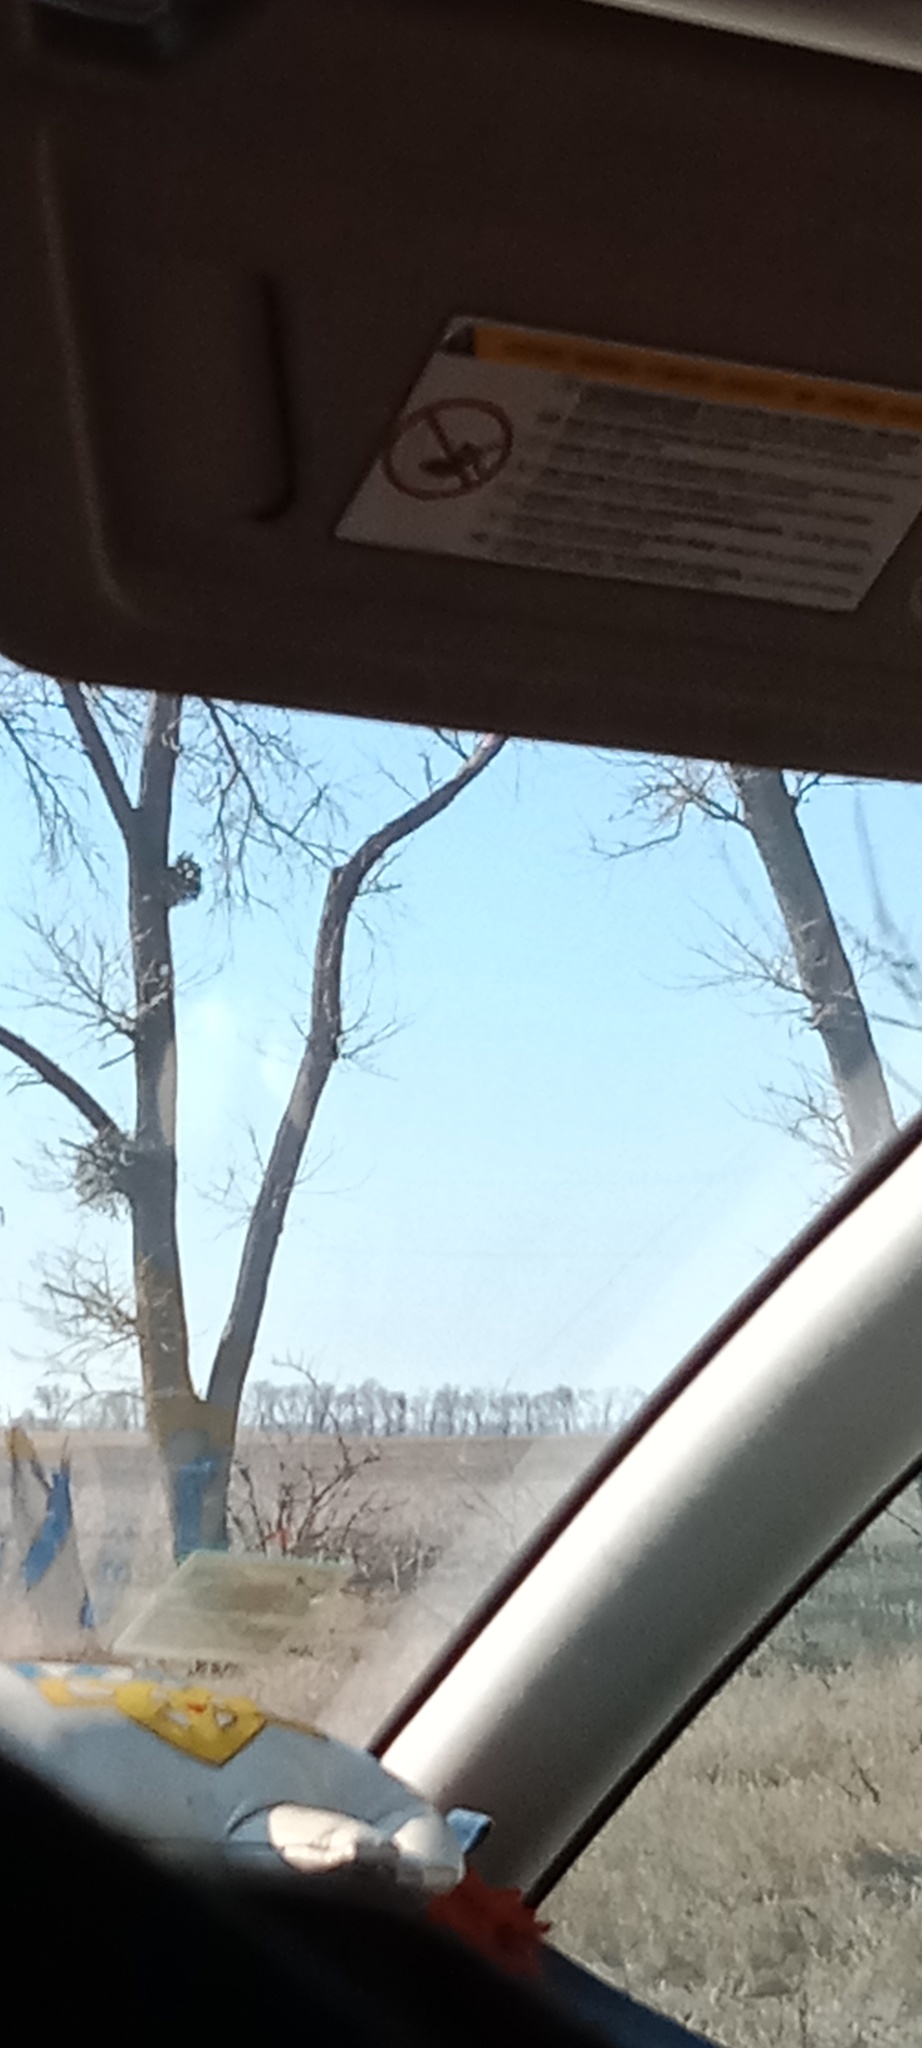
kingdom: Plantae
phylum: Tracheophyta
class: Magnoliopsida
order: Santalales
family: Viscaceae
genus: Viscum
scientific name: Viscum album
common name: Mistletoe
